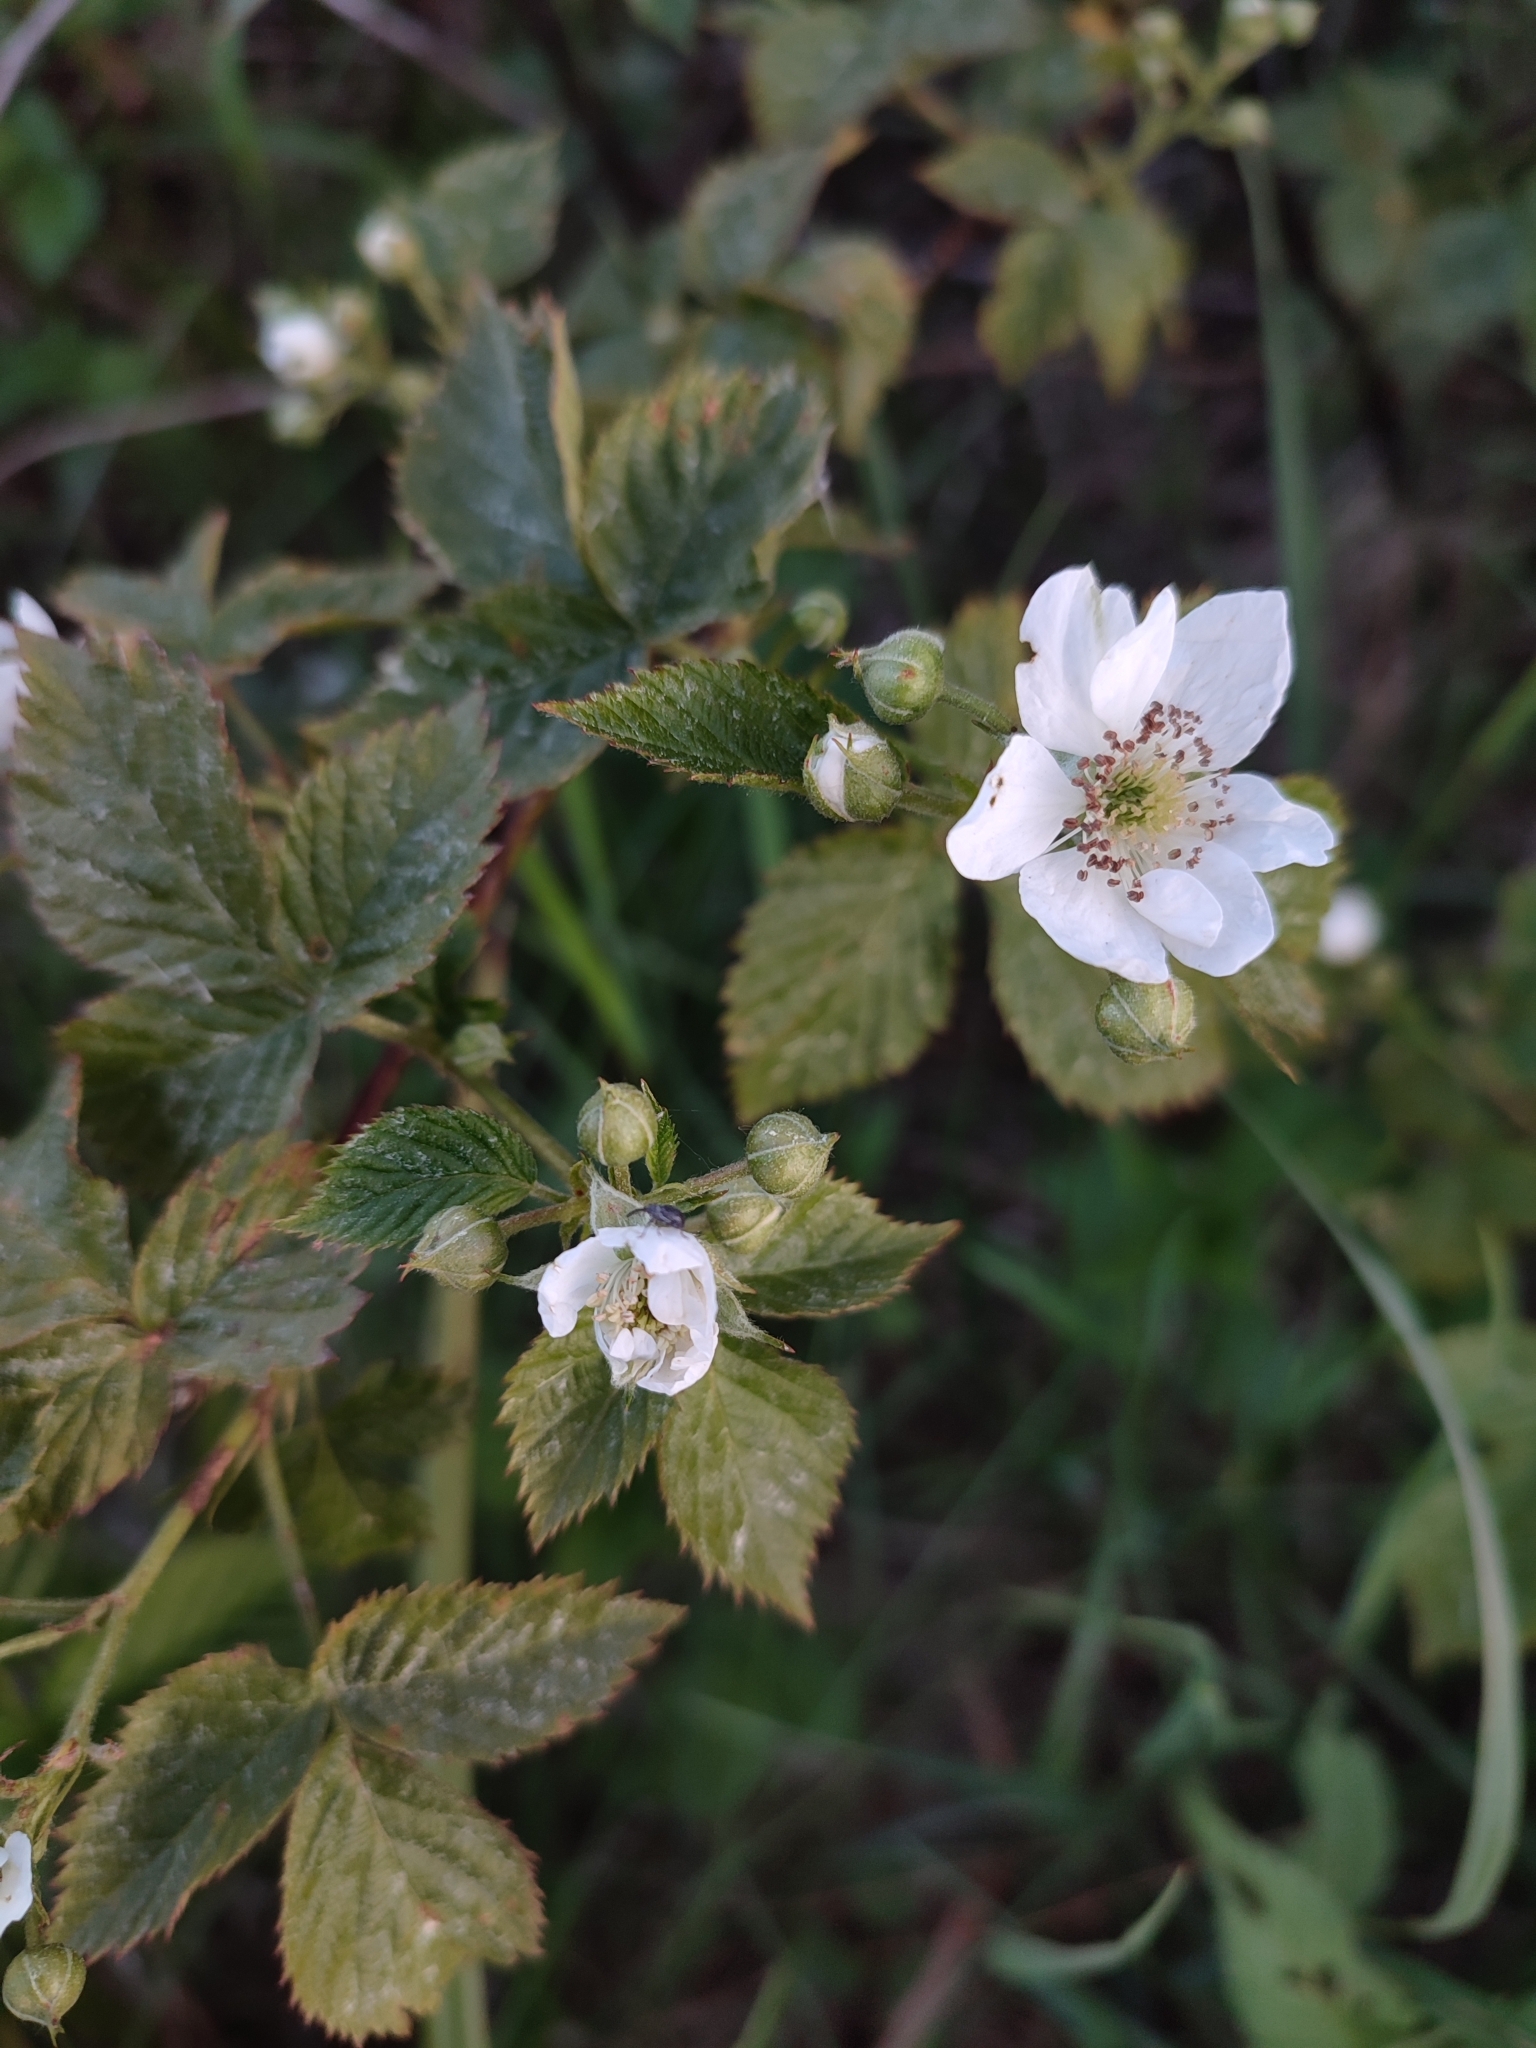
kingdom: Plantae
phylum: Tracheophyta
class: Magnoliopsida
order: Rosales
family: Rosaceae
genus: Rubus
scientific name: Rubus polonicus
